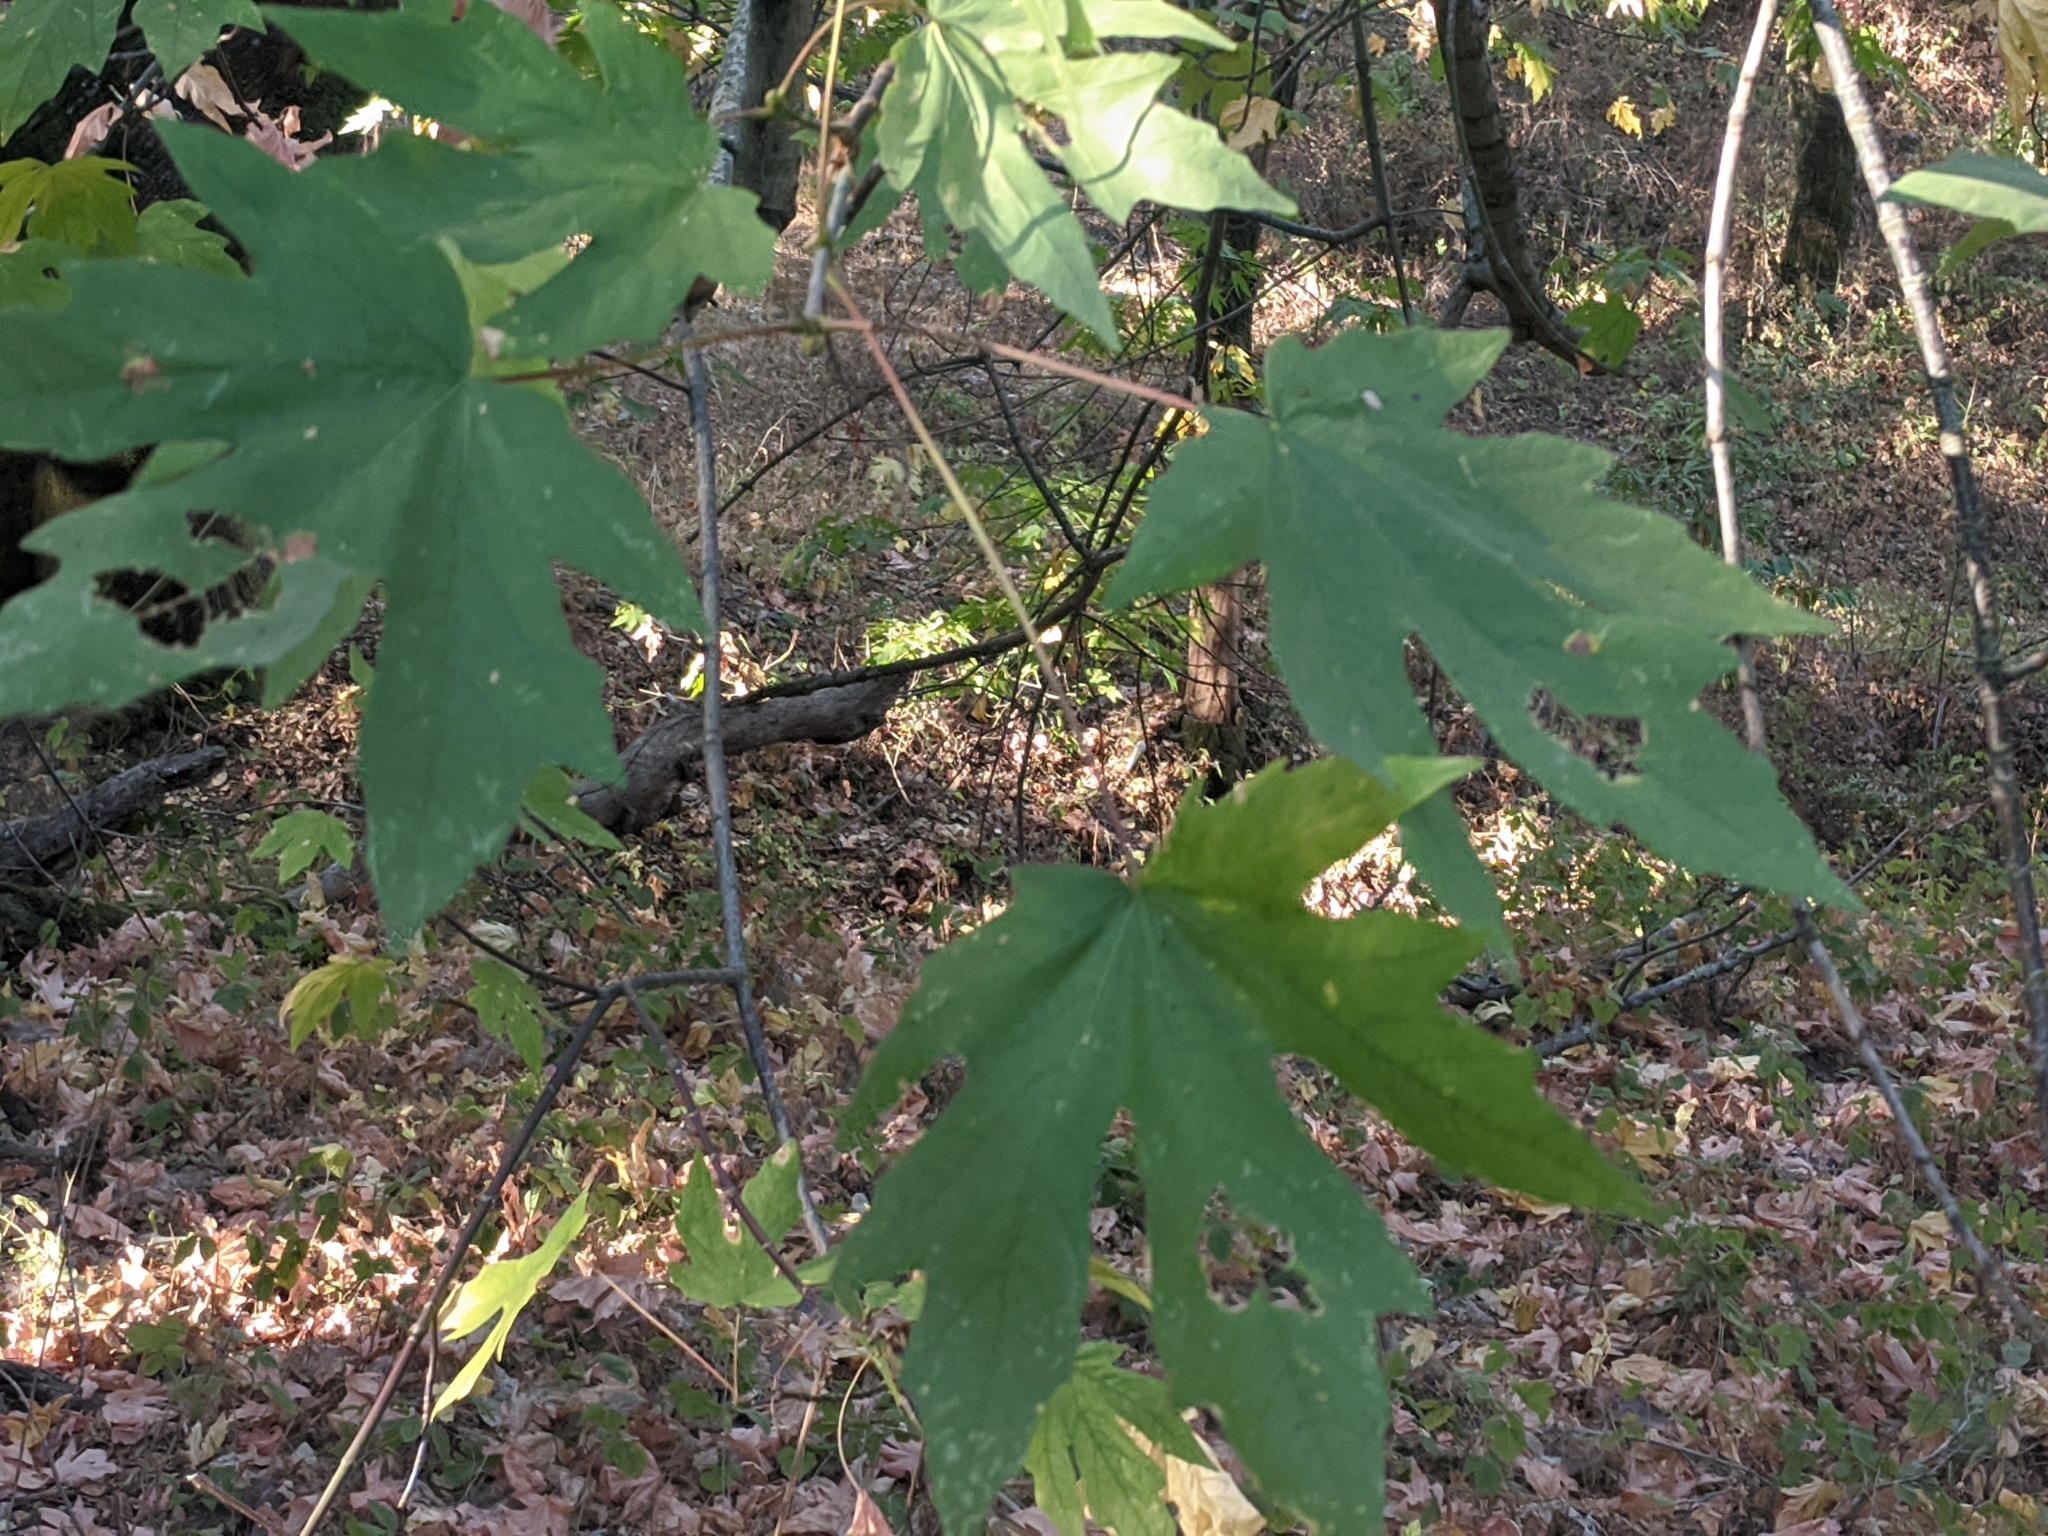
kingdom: Plantae
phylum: Tracheophyta
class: Magnoliopsida
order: Sapindales
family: Sapindaceae
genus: Acer
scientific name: Acer macrophyllum
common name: Oregon maple
